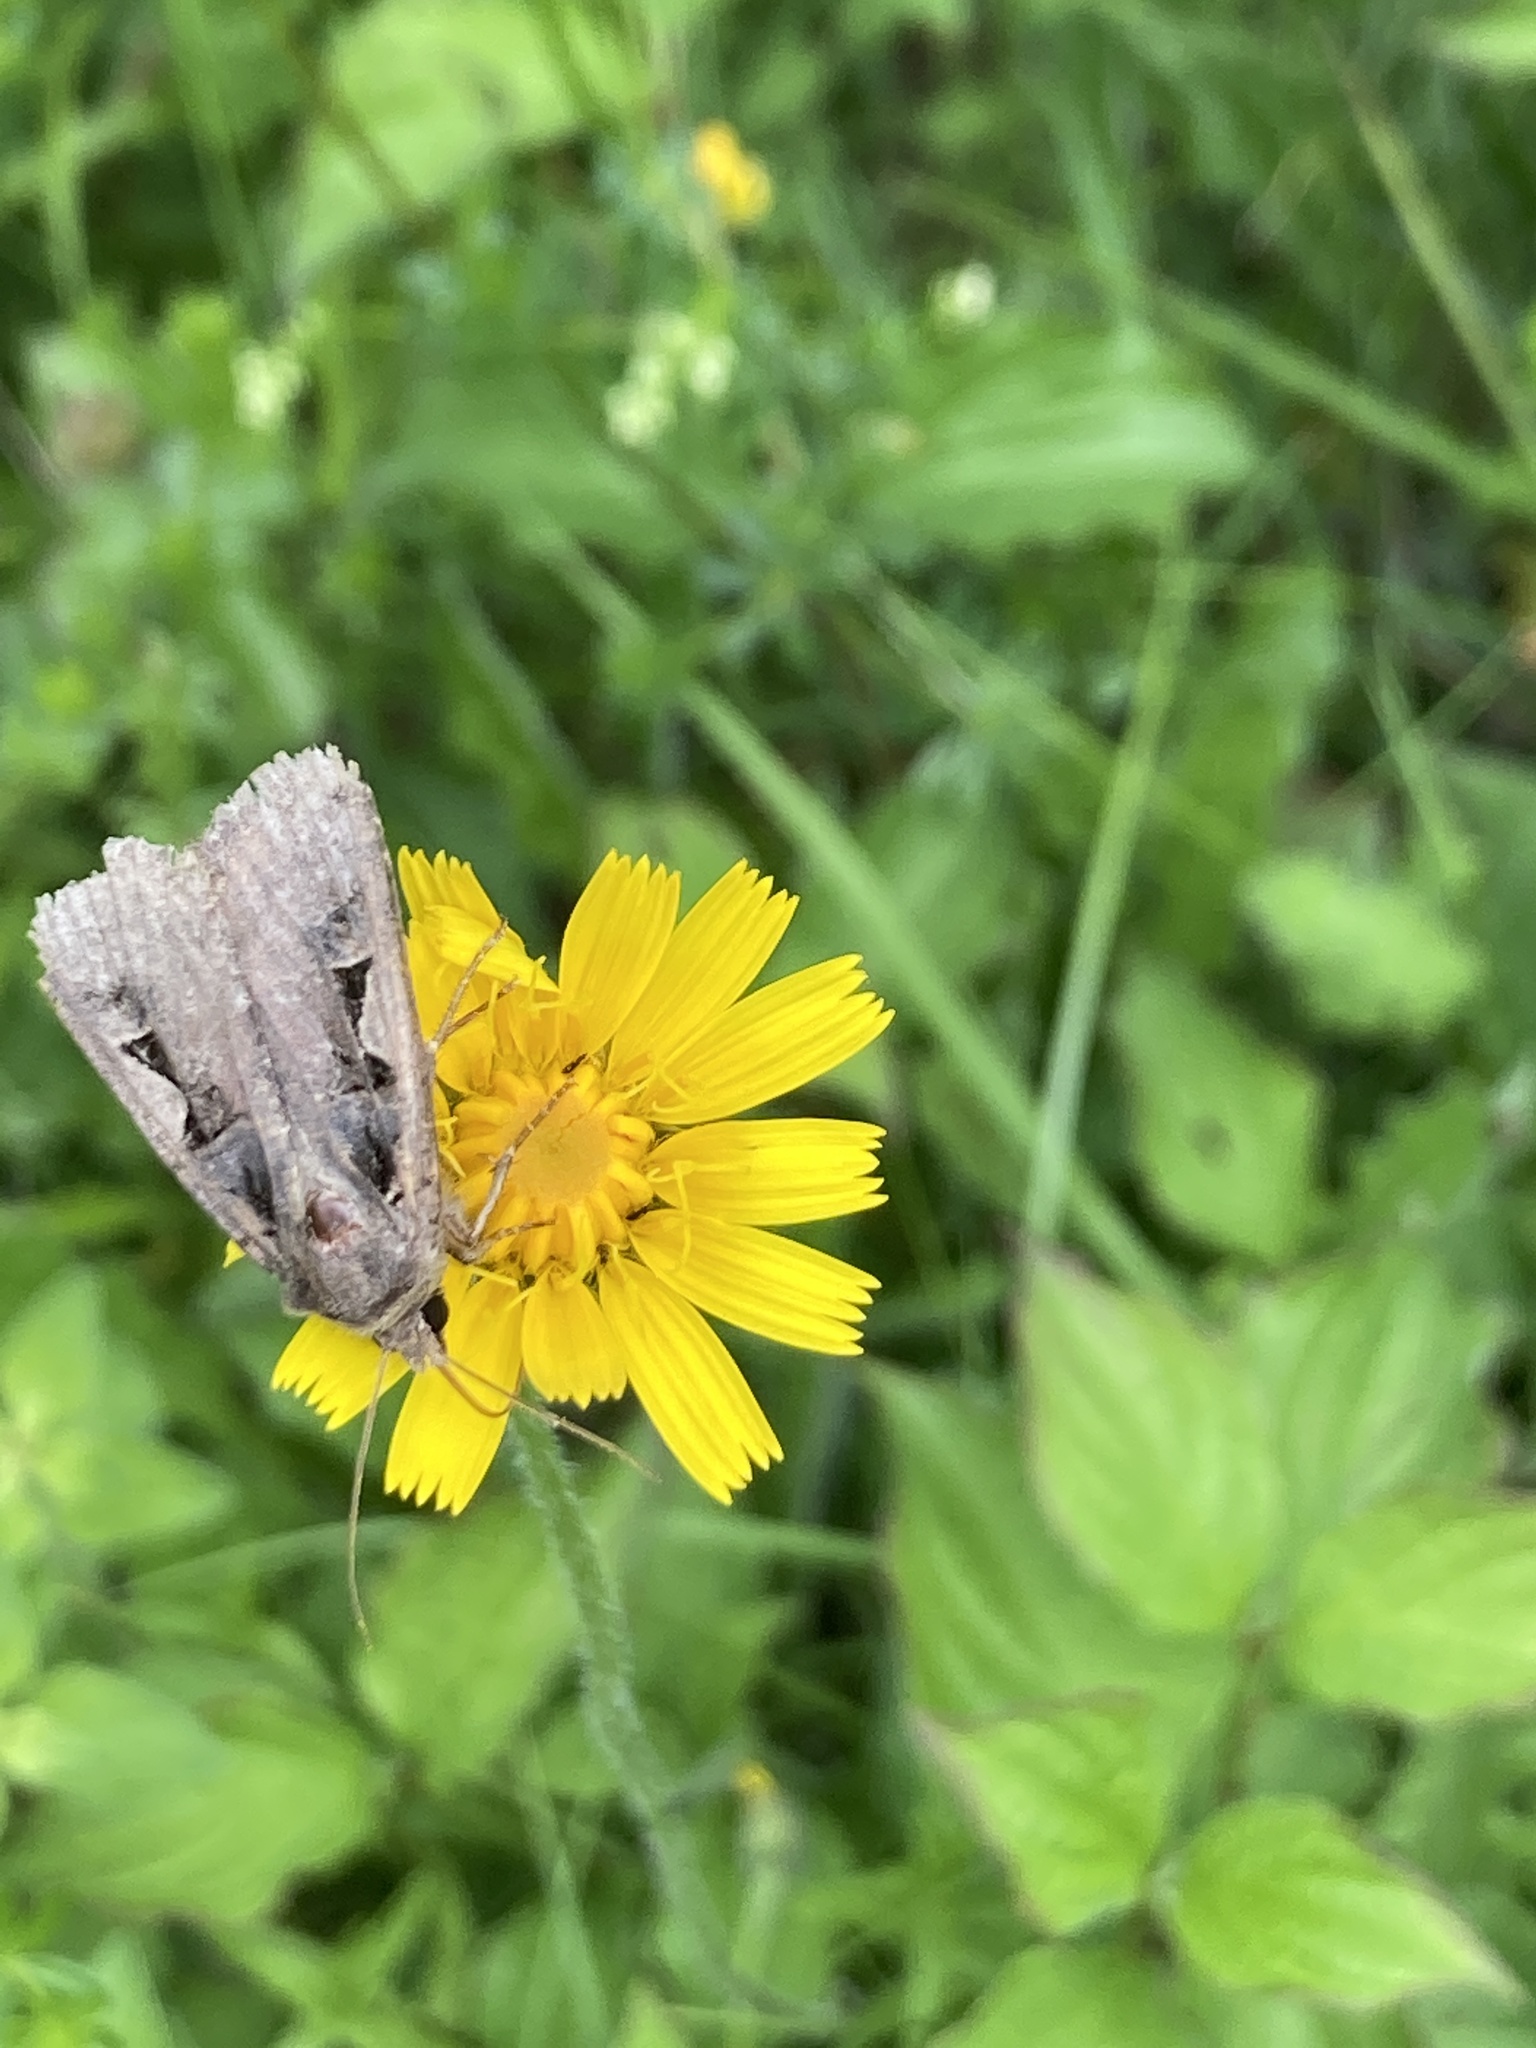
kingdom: Animalia
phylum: Arthropoda
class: Insecta
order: Lepidoptera
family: Noctuidae
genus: Xestia
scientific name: Xestia c-nigrum
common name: Setaceous hebrew character
